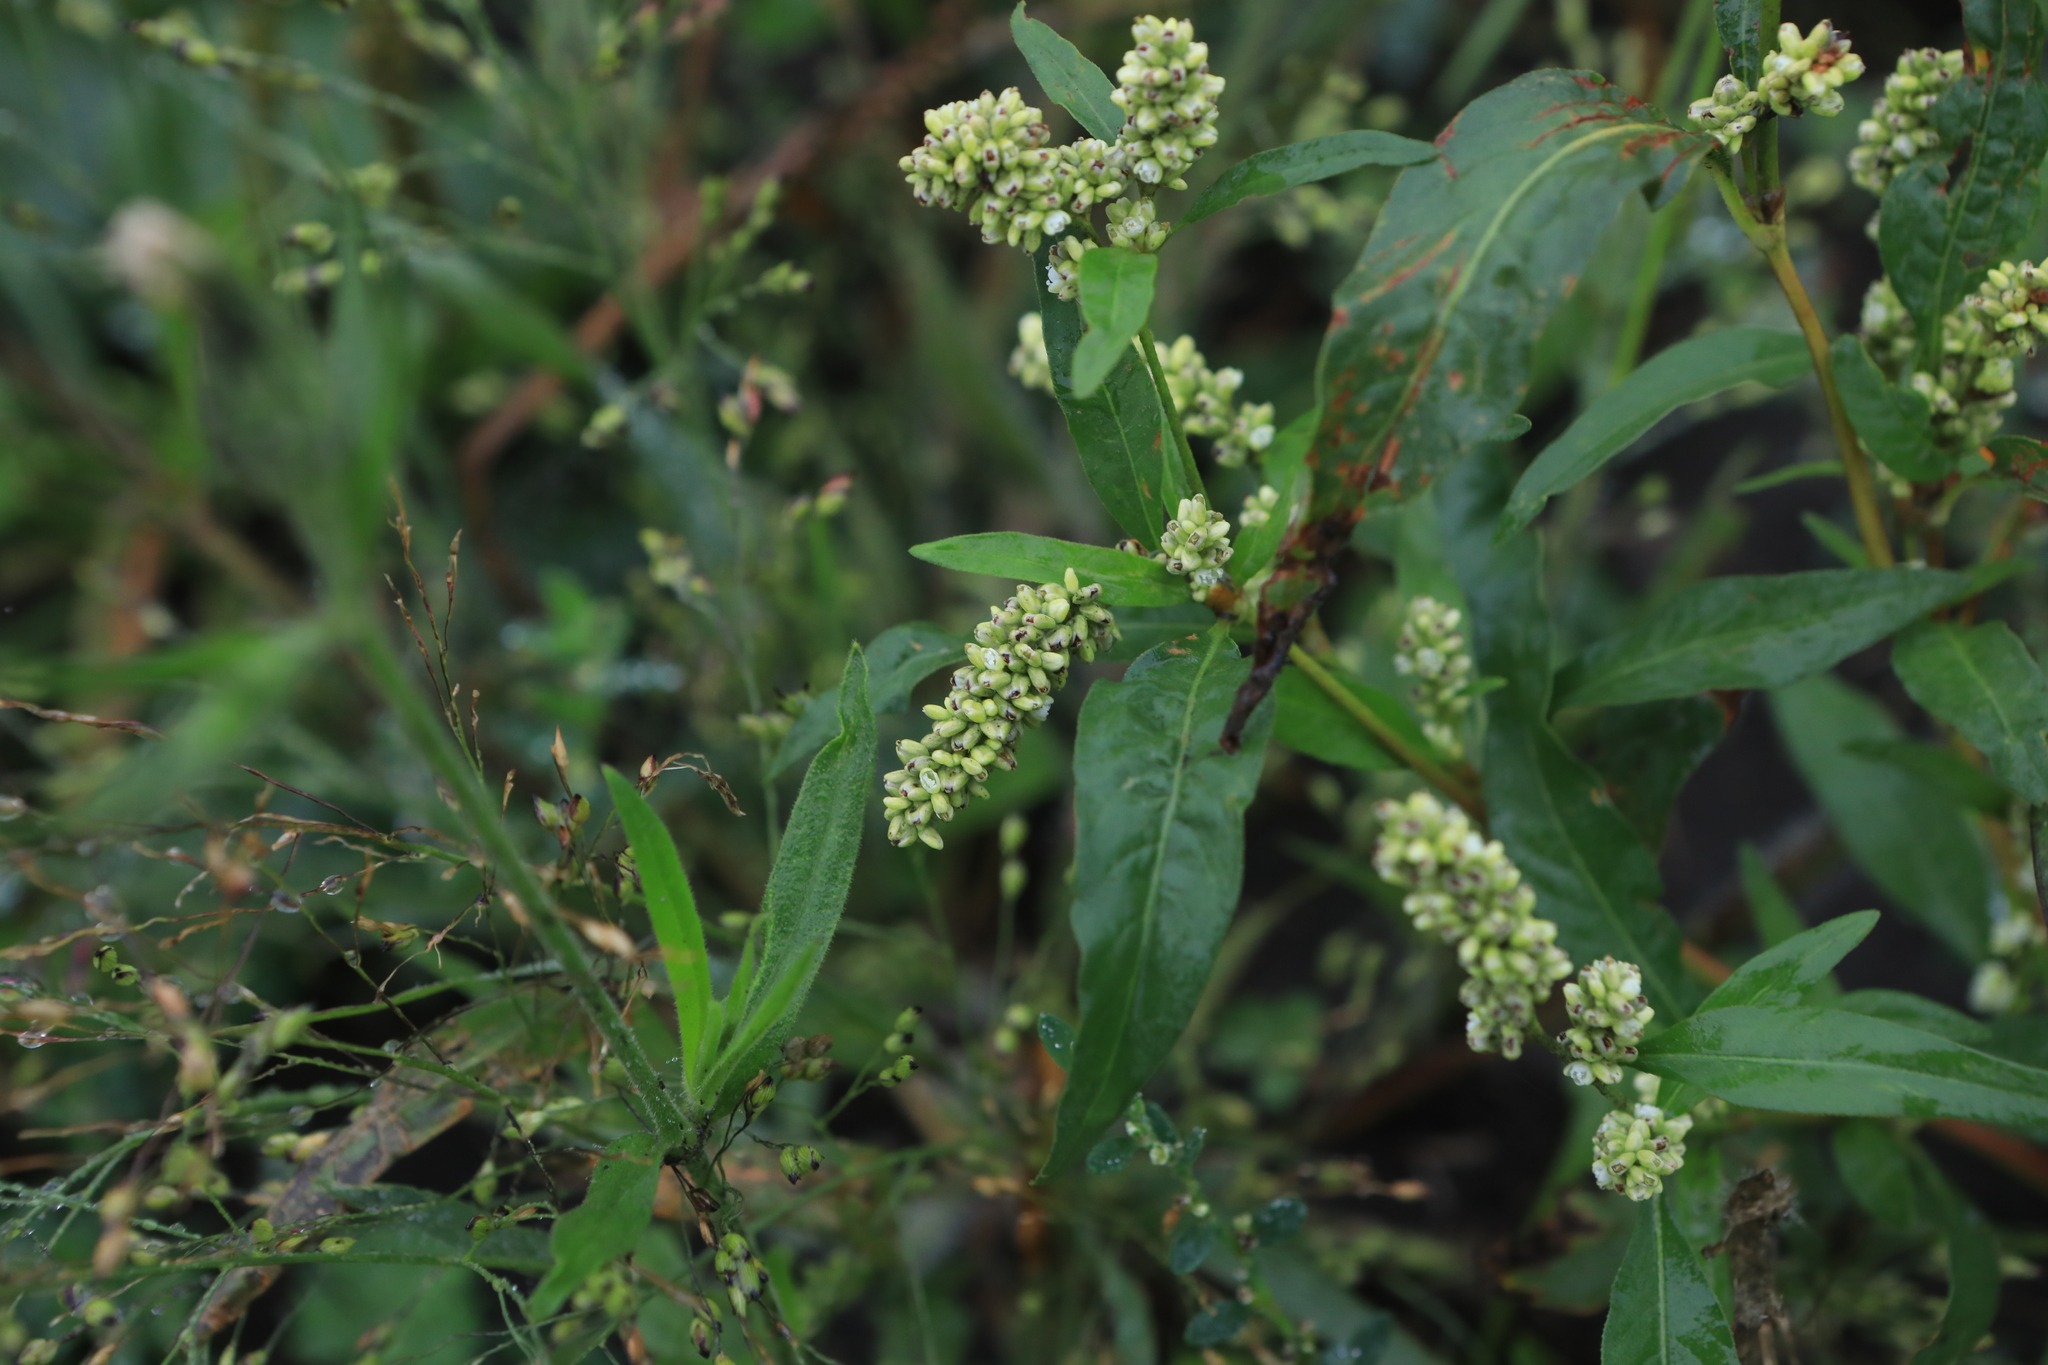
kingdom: Plantae
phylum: Tracheophyta
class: Magnoliopsida
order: Caryophyllales
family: Polygonaceae
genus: Persicaria
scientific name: Persicaria lapathifolia
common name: Curlytop knotweed
